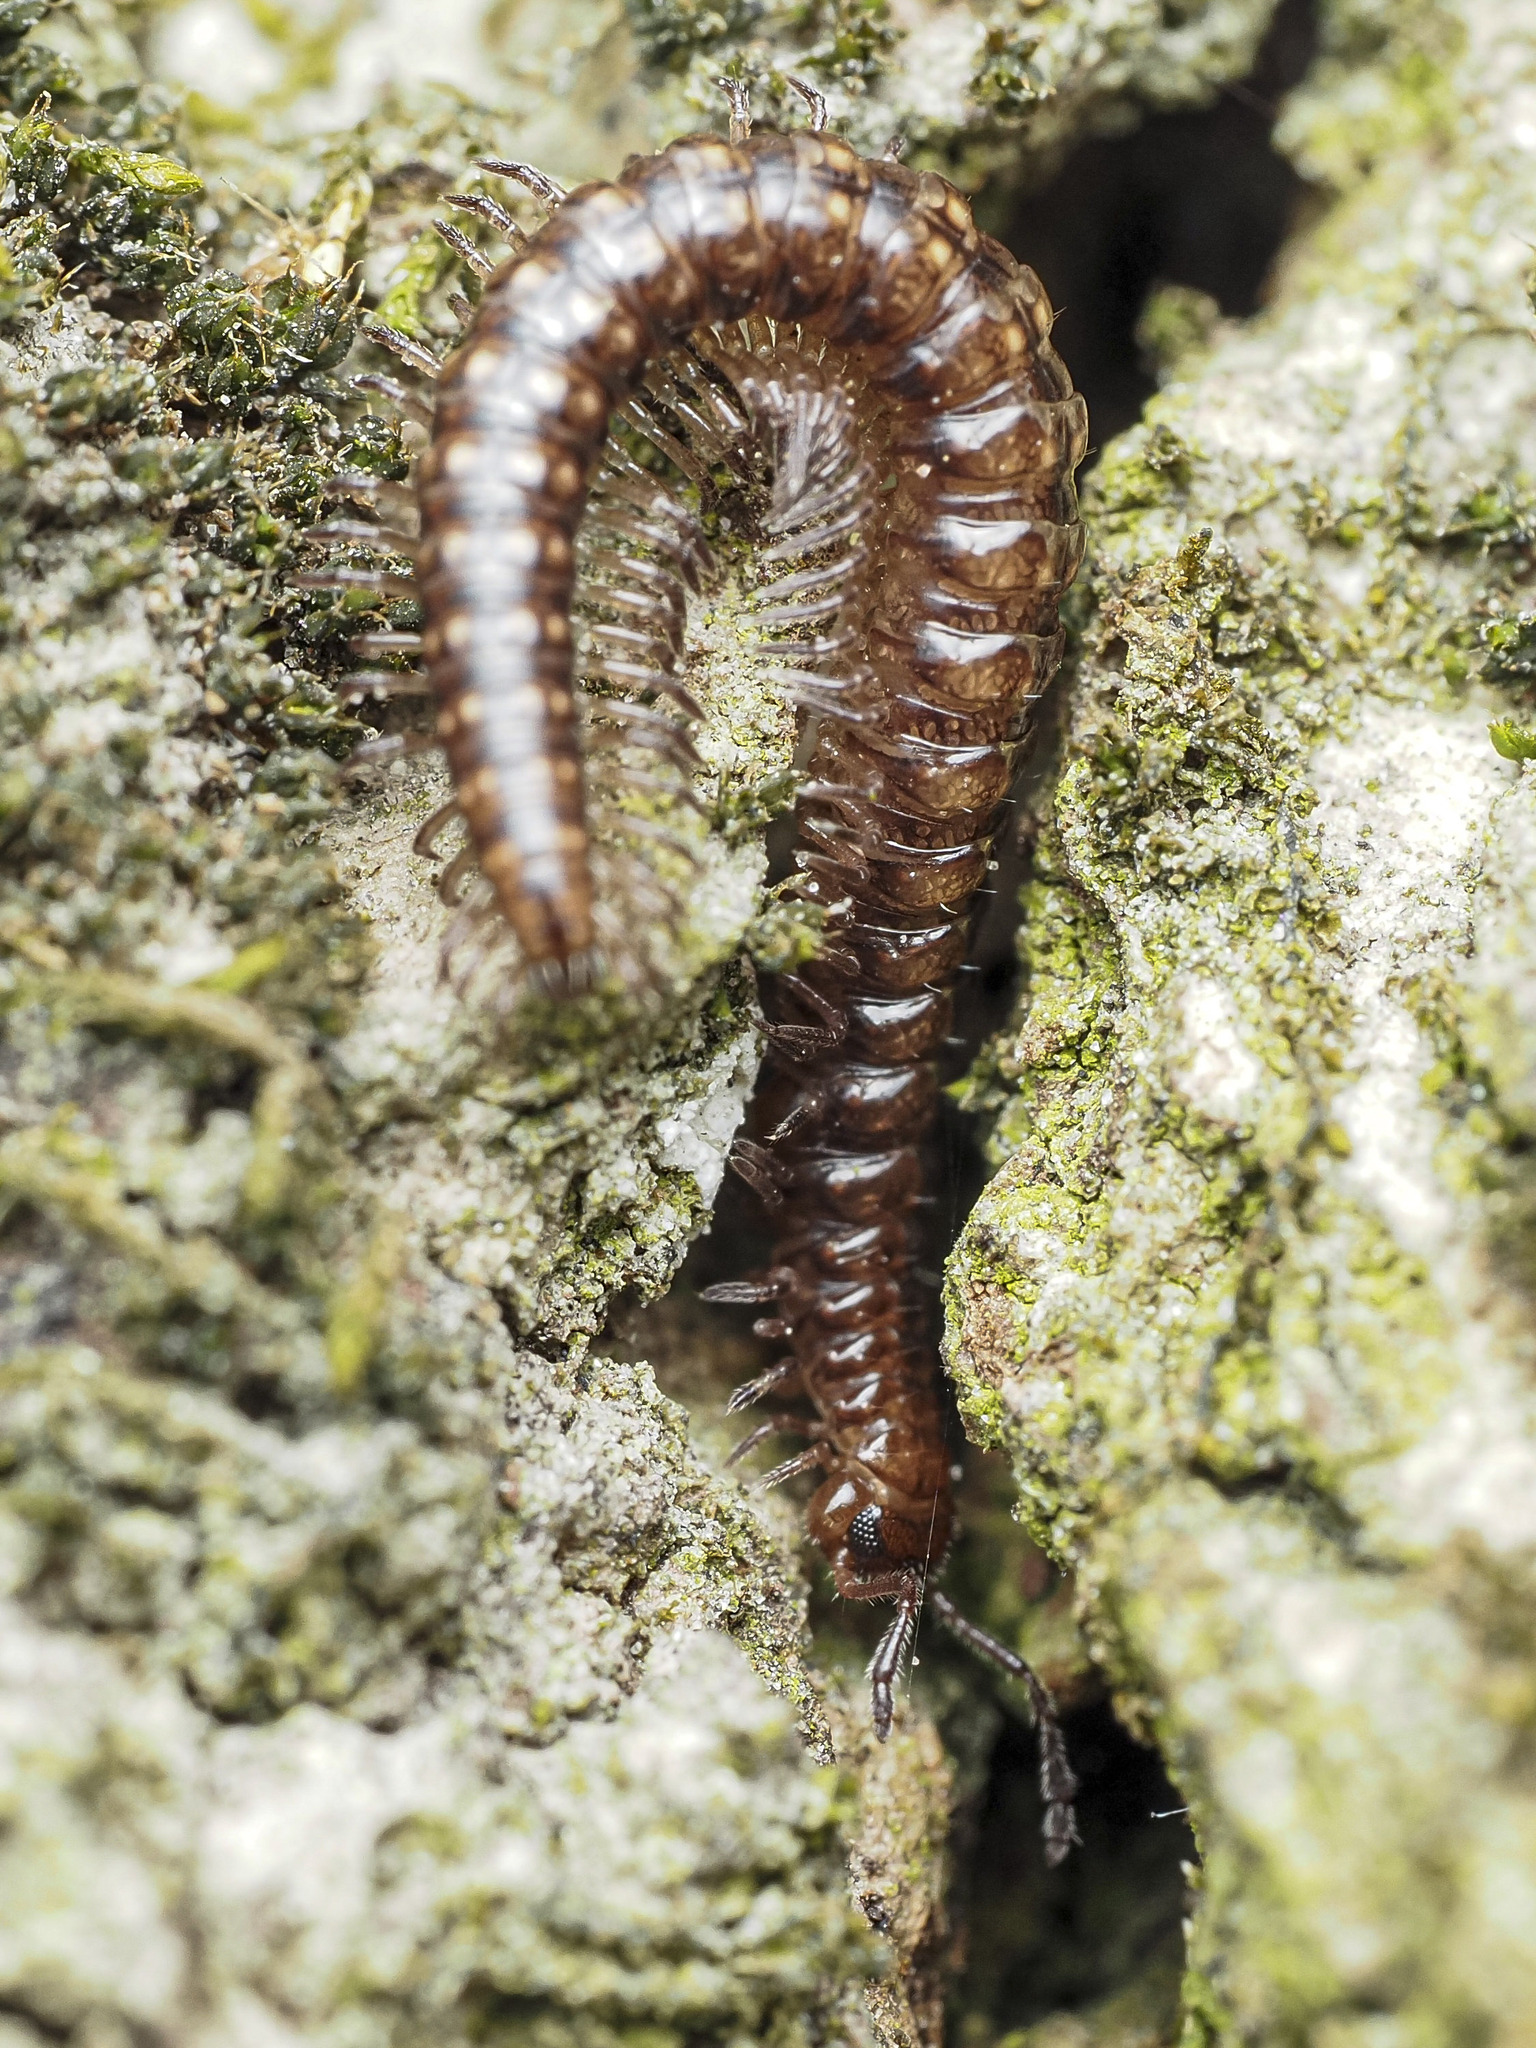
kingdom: Animalia
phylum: Arthropoda
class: Diplopoda
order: Chordeumatida
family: Craspedosomatidae
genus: Craspedosoma
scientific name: Craspedosoma rawlinsii
